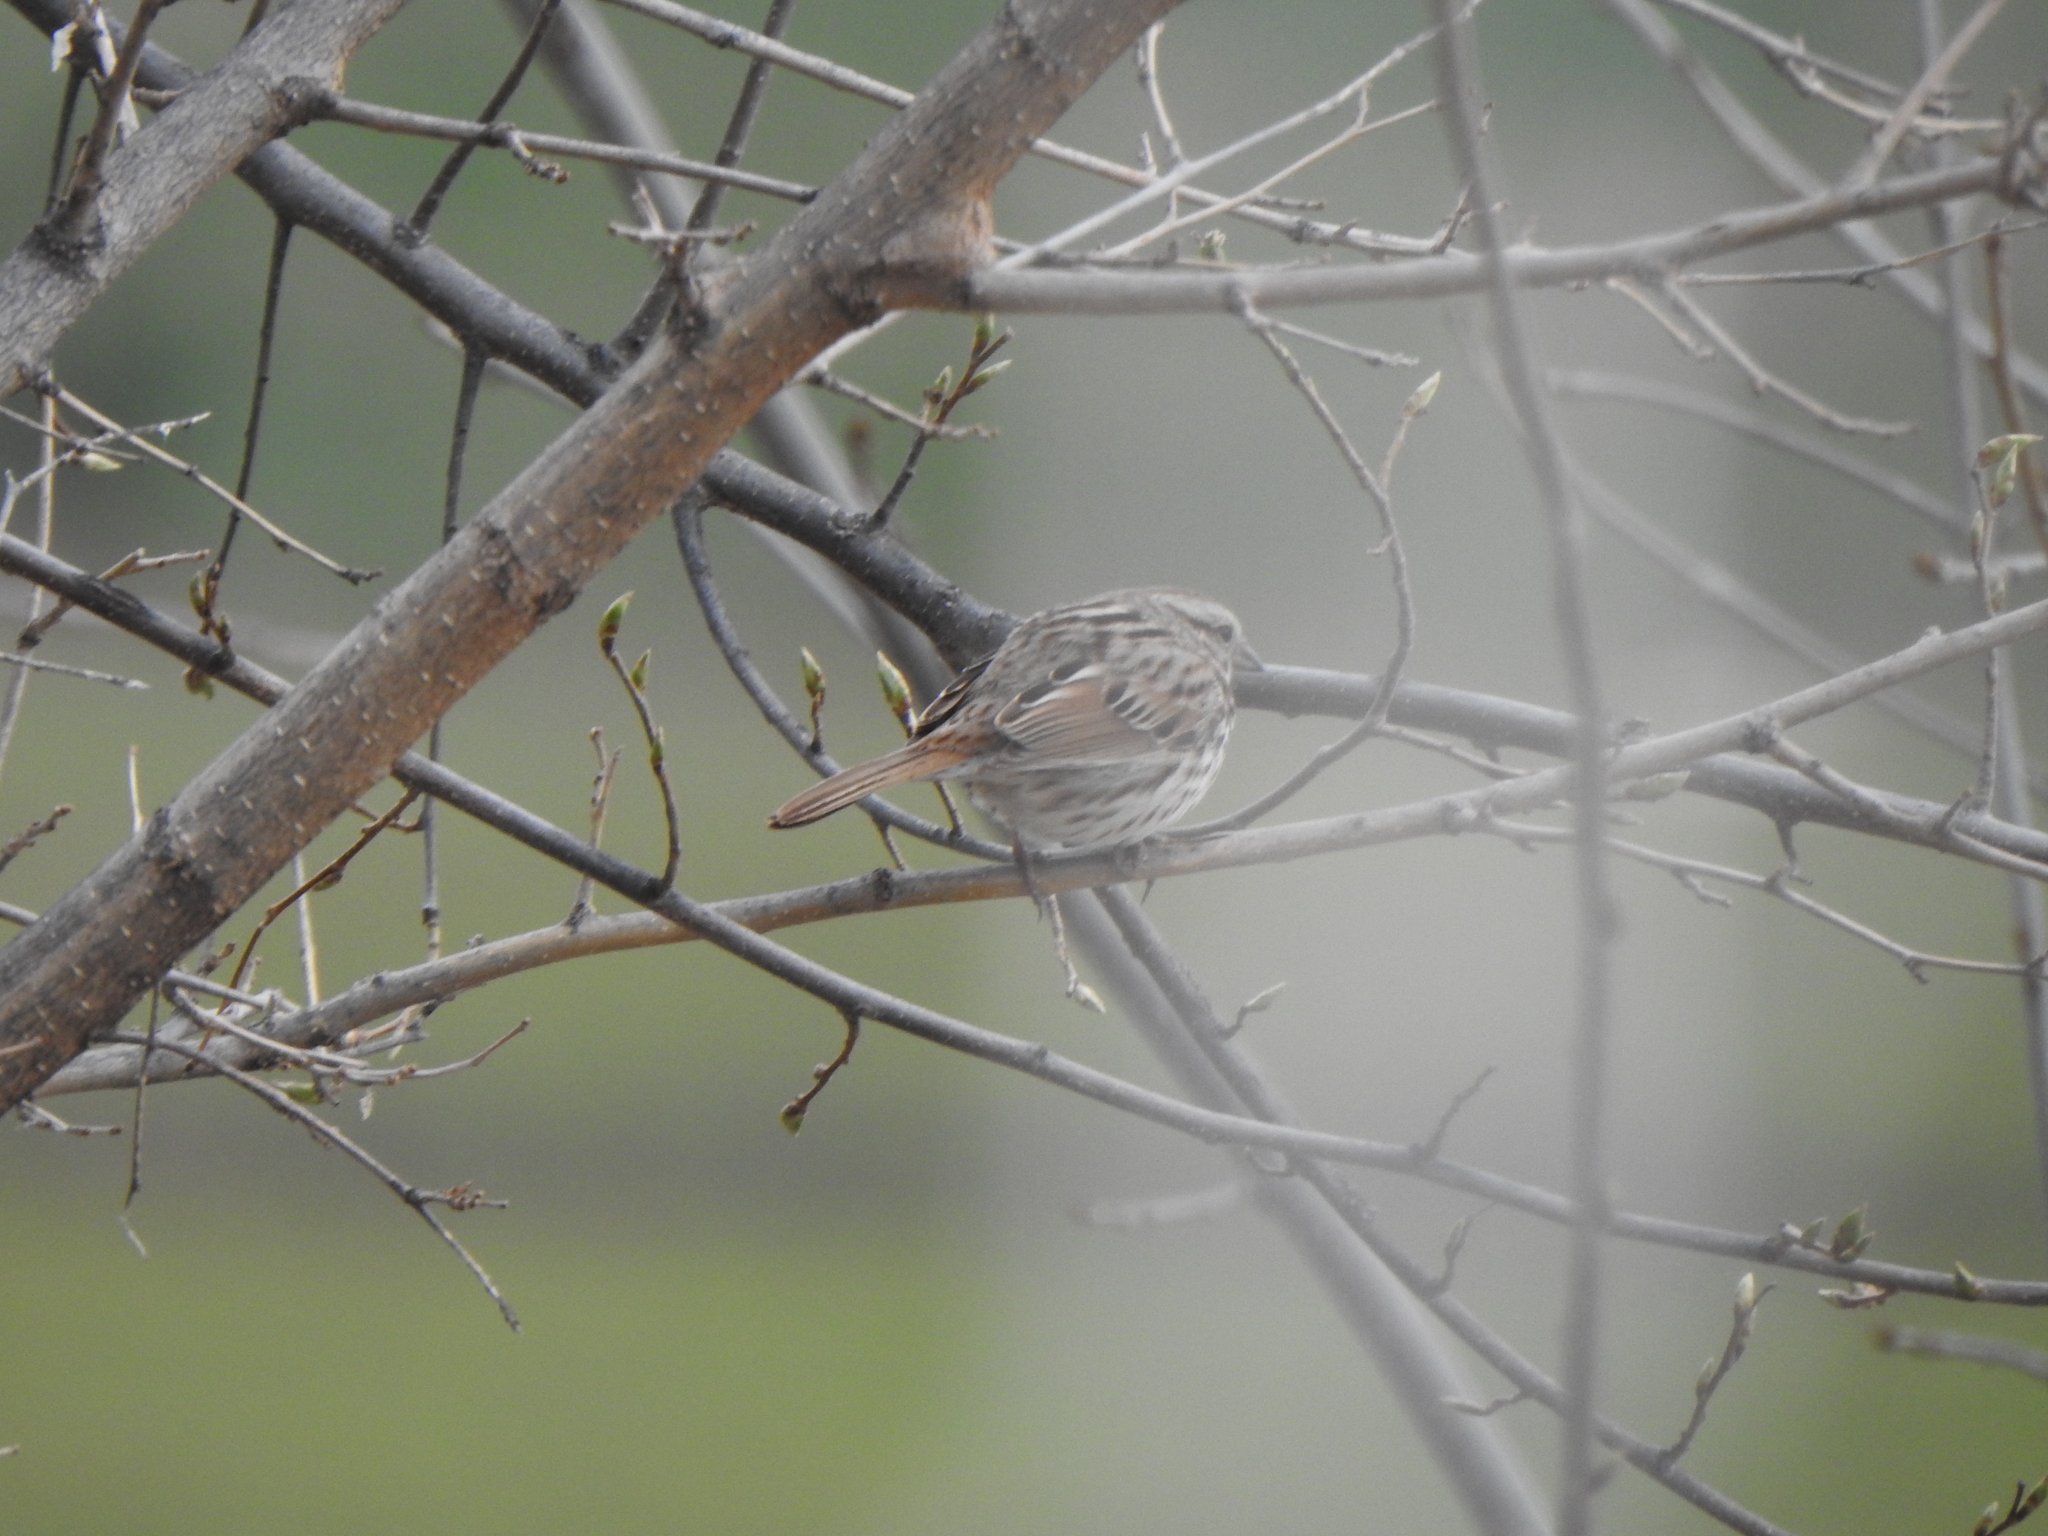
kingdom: Animalia
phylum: Chordata
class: Aves
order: Passeriformes
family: Passerellidae
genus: Melospiza
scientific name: Melospiza melodia
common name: Song sparrow
